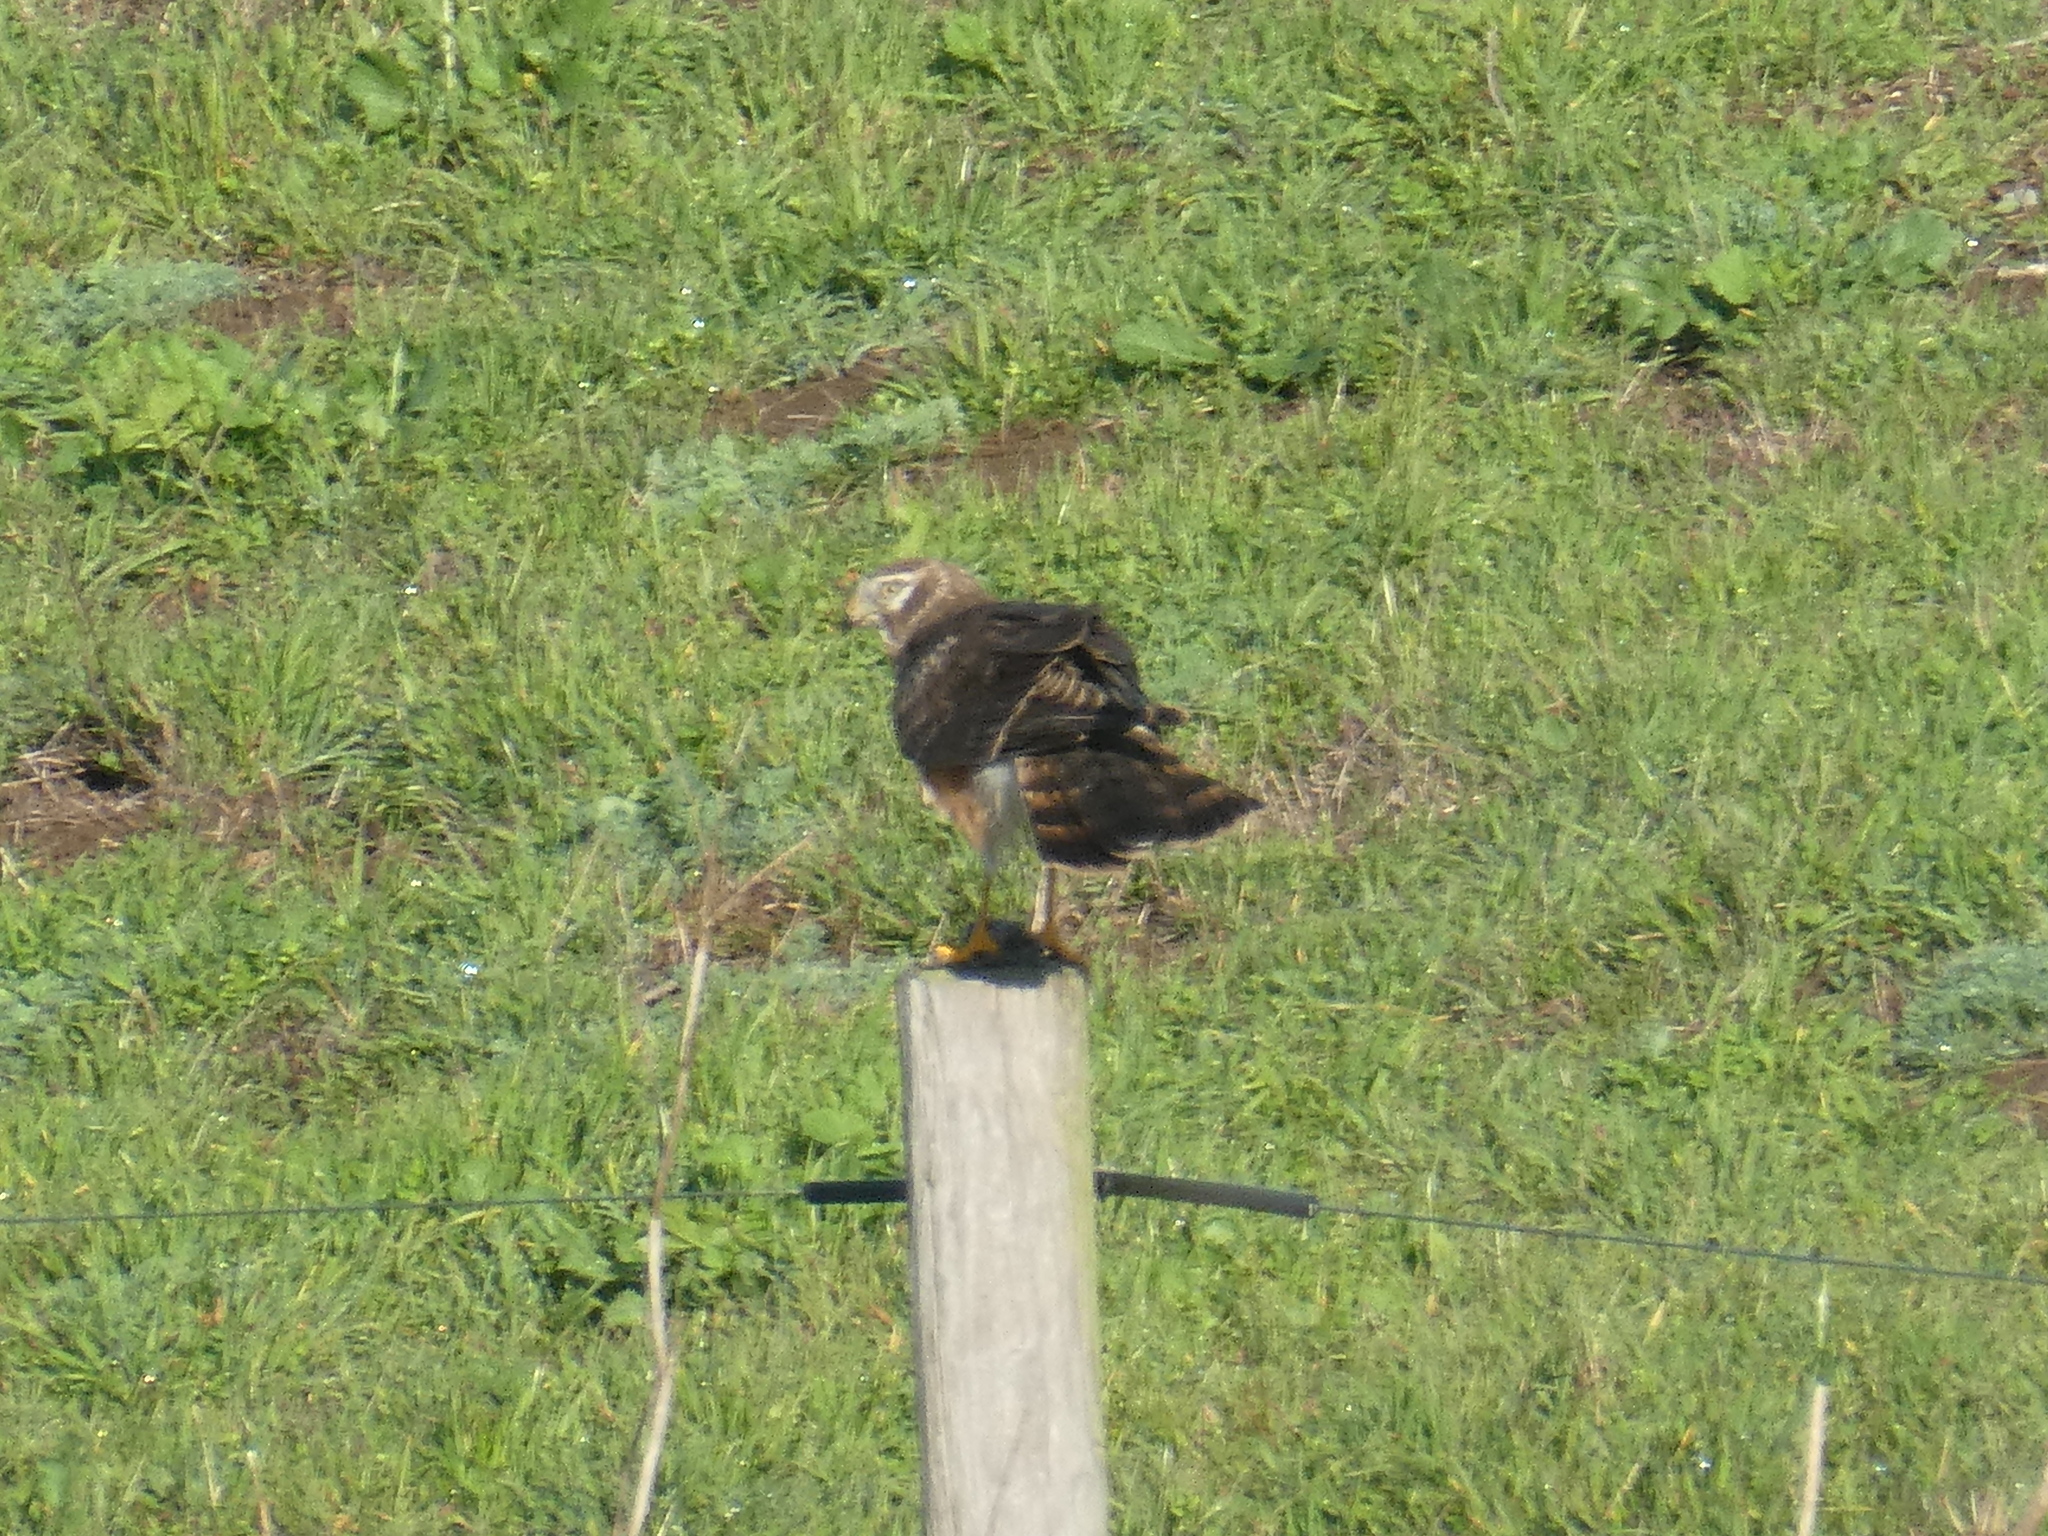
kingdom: Animalia
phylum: Chordata
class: Aves
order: Accipitriformes
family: Accipitridae
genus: Circus
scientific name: Circus cyaneus
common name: Hen harrier
